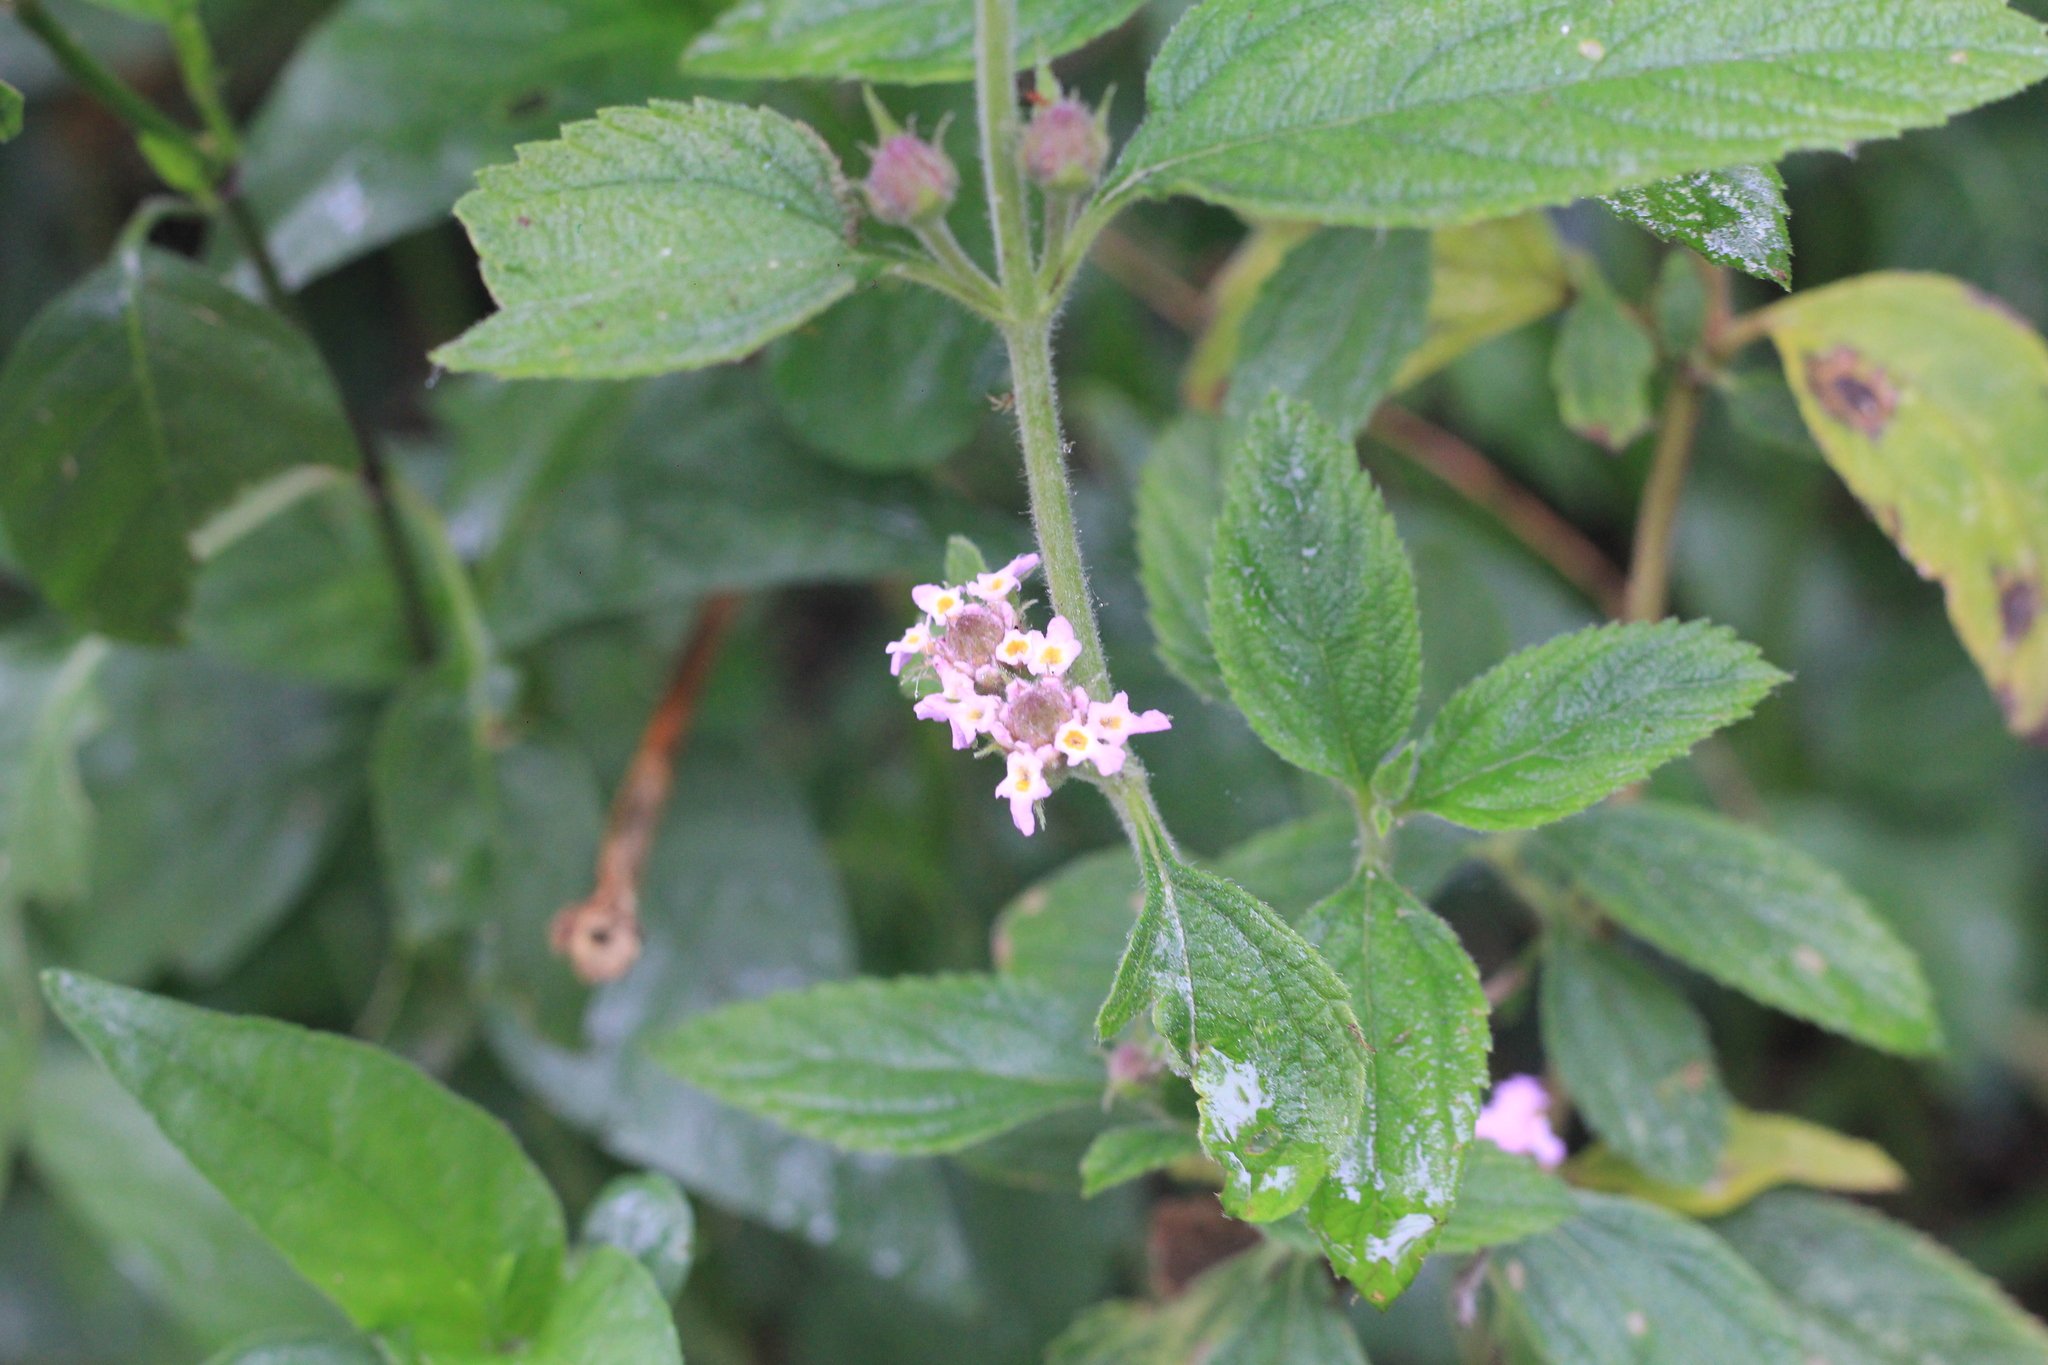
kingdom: Plantae
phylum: Tracheophyta
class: Magnoliopsida
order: Lamiales
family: Verbenaceae
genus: Lippia
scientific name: Lippia alba
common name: Bushy matgrass
